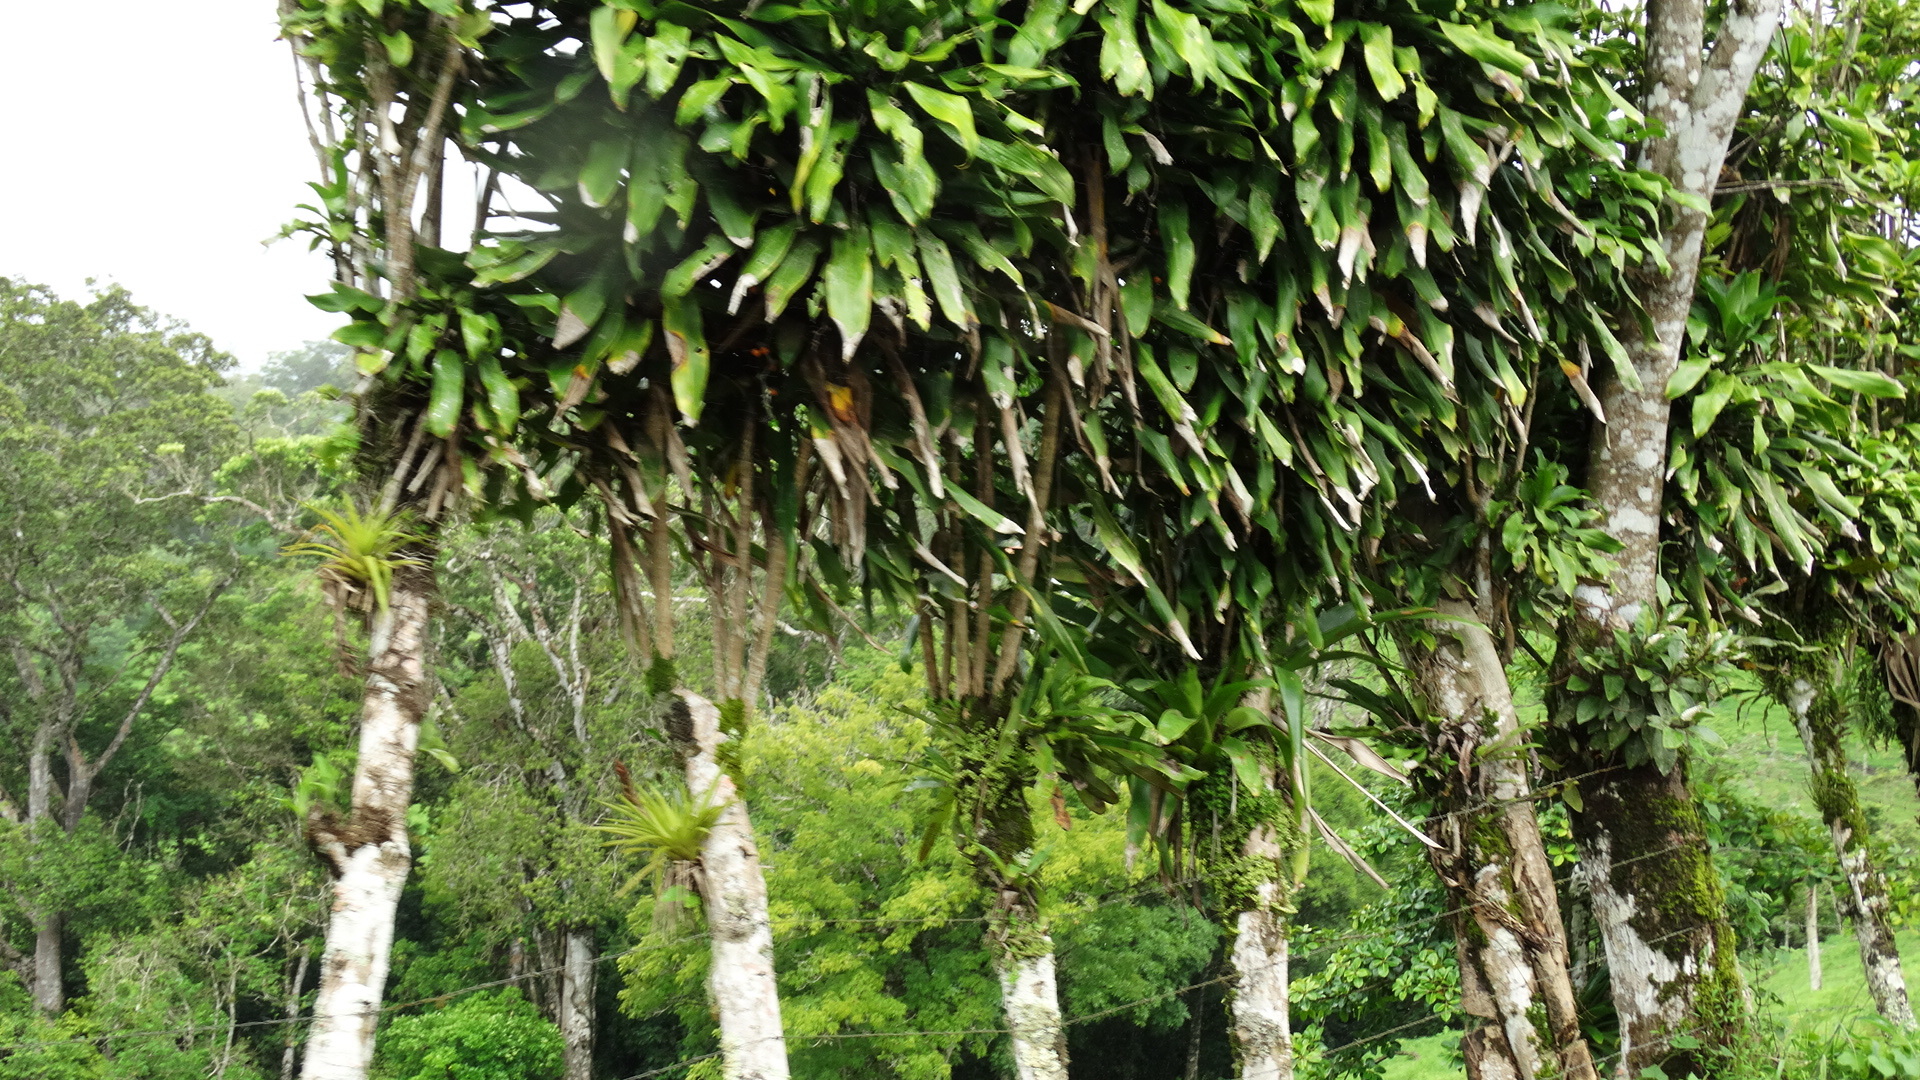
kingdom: Plantae
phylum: Tracheophyta
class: Liliopsida
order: Asparagales
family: Asparagaceae
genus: Dracaena
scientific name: Dracaena fragrans
